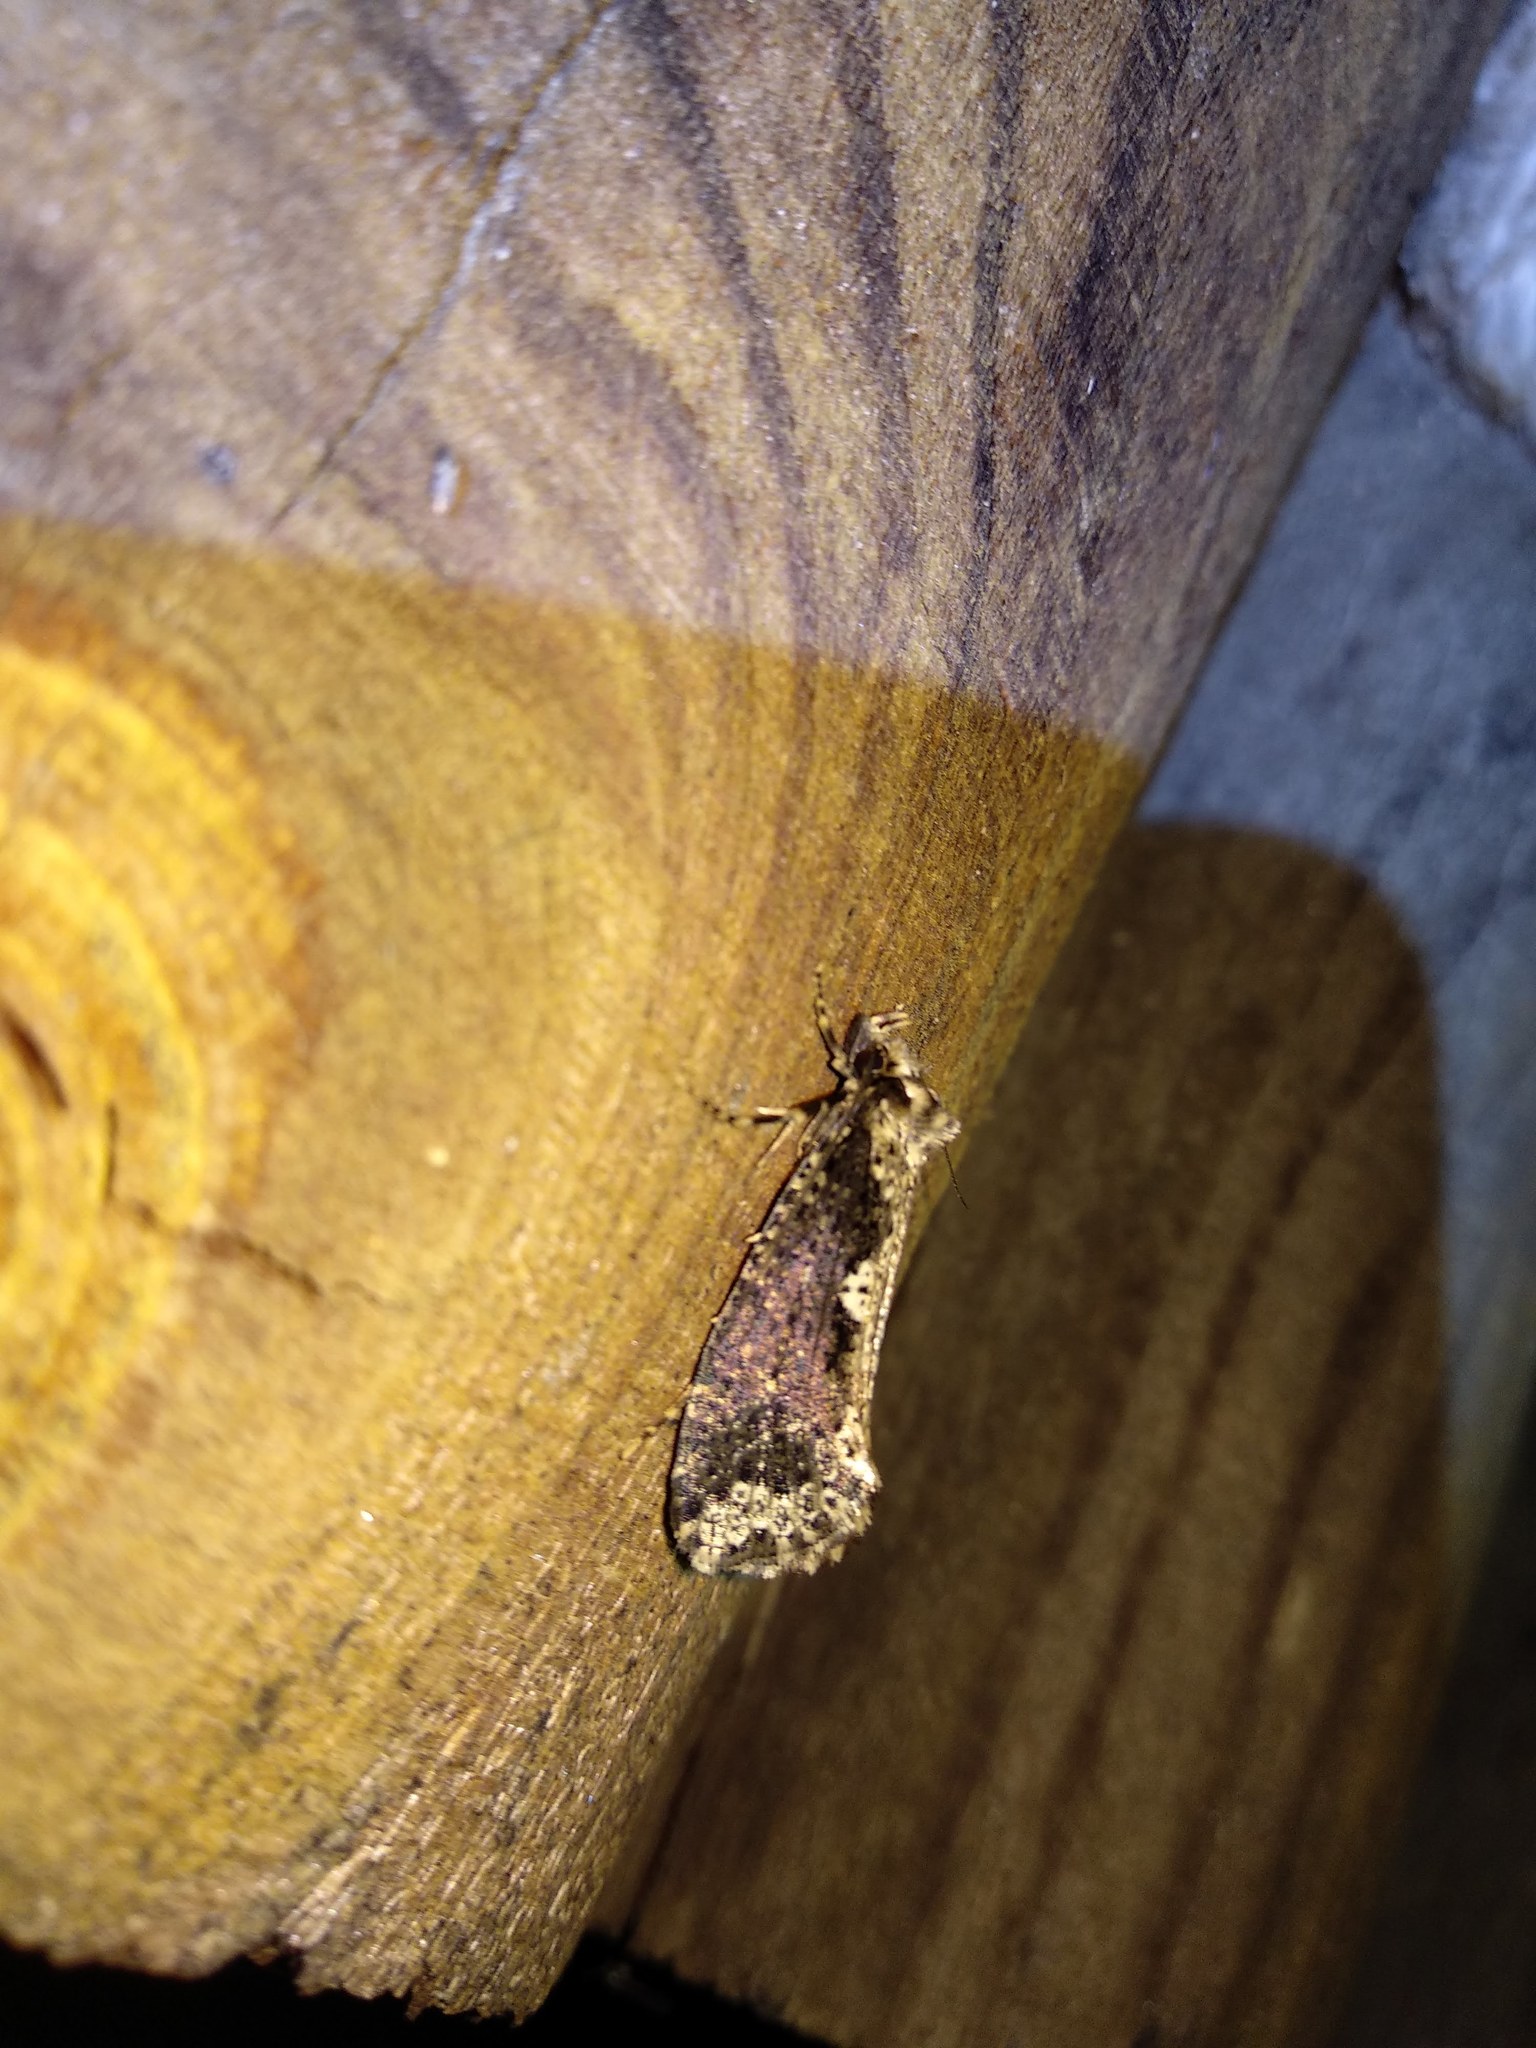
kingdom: Animalia
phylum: Arthropoda
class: Insecta
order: Lepidoptera
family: Tineidae
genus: Scardia
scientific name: Scardia boletella
